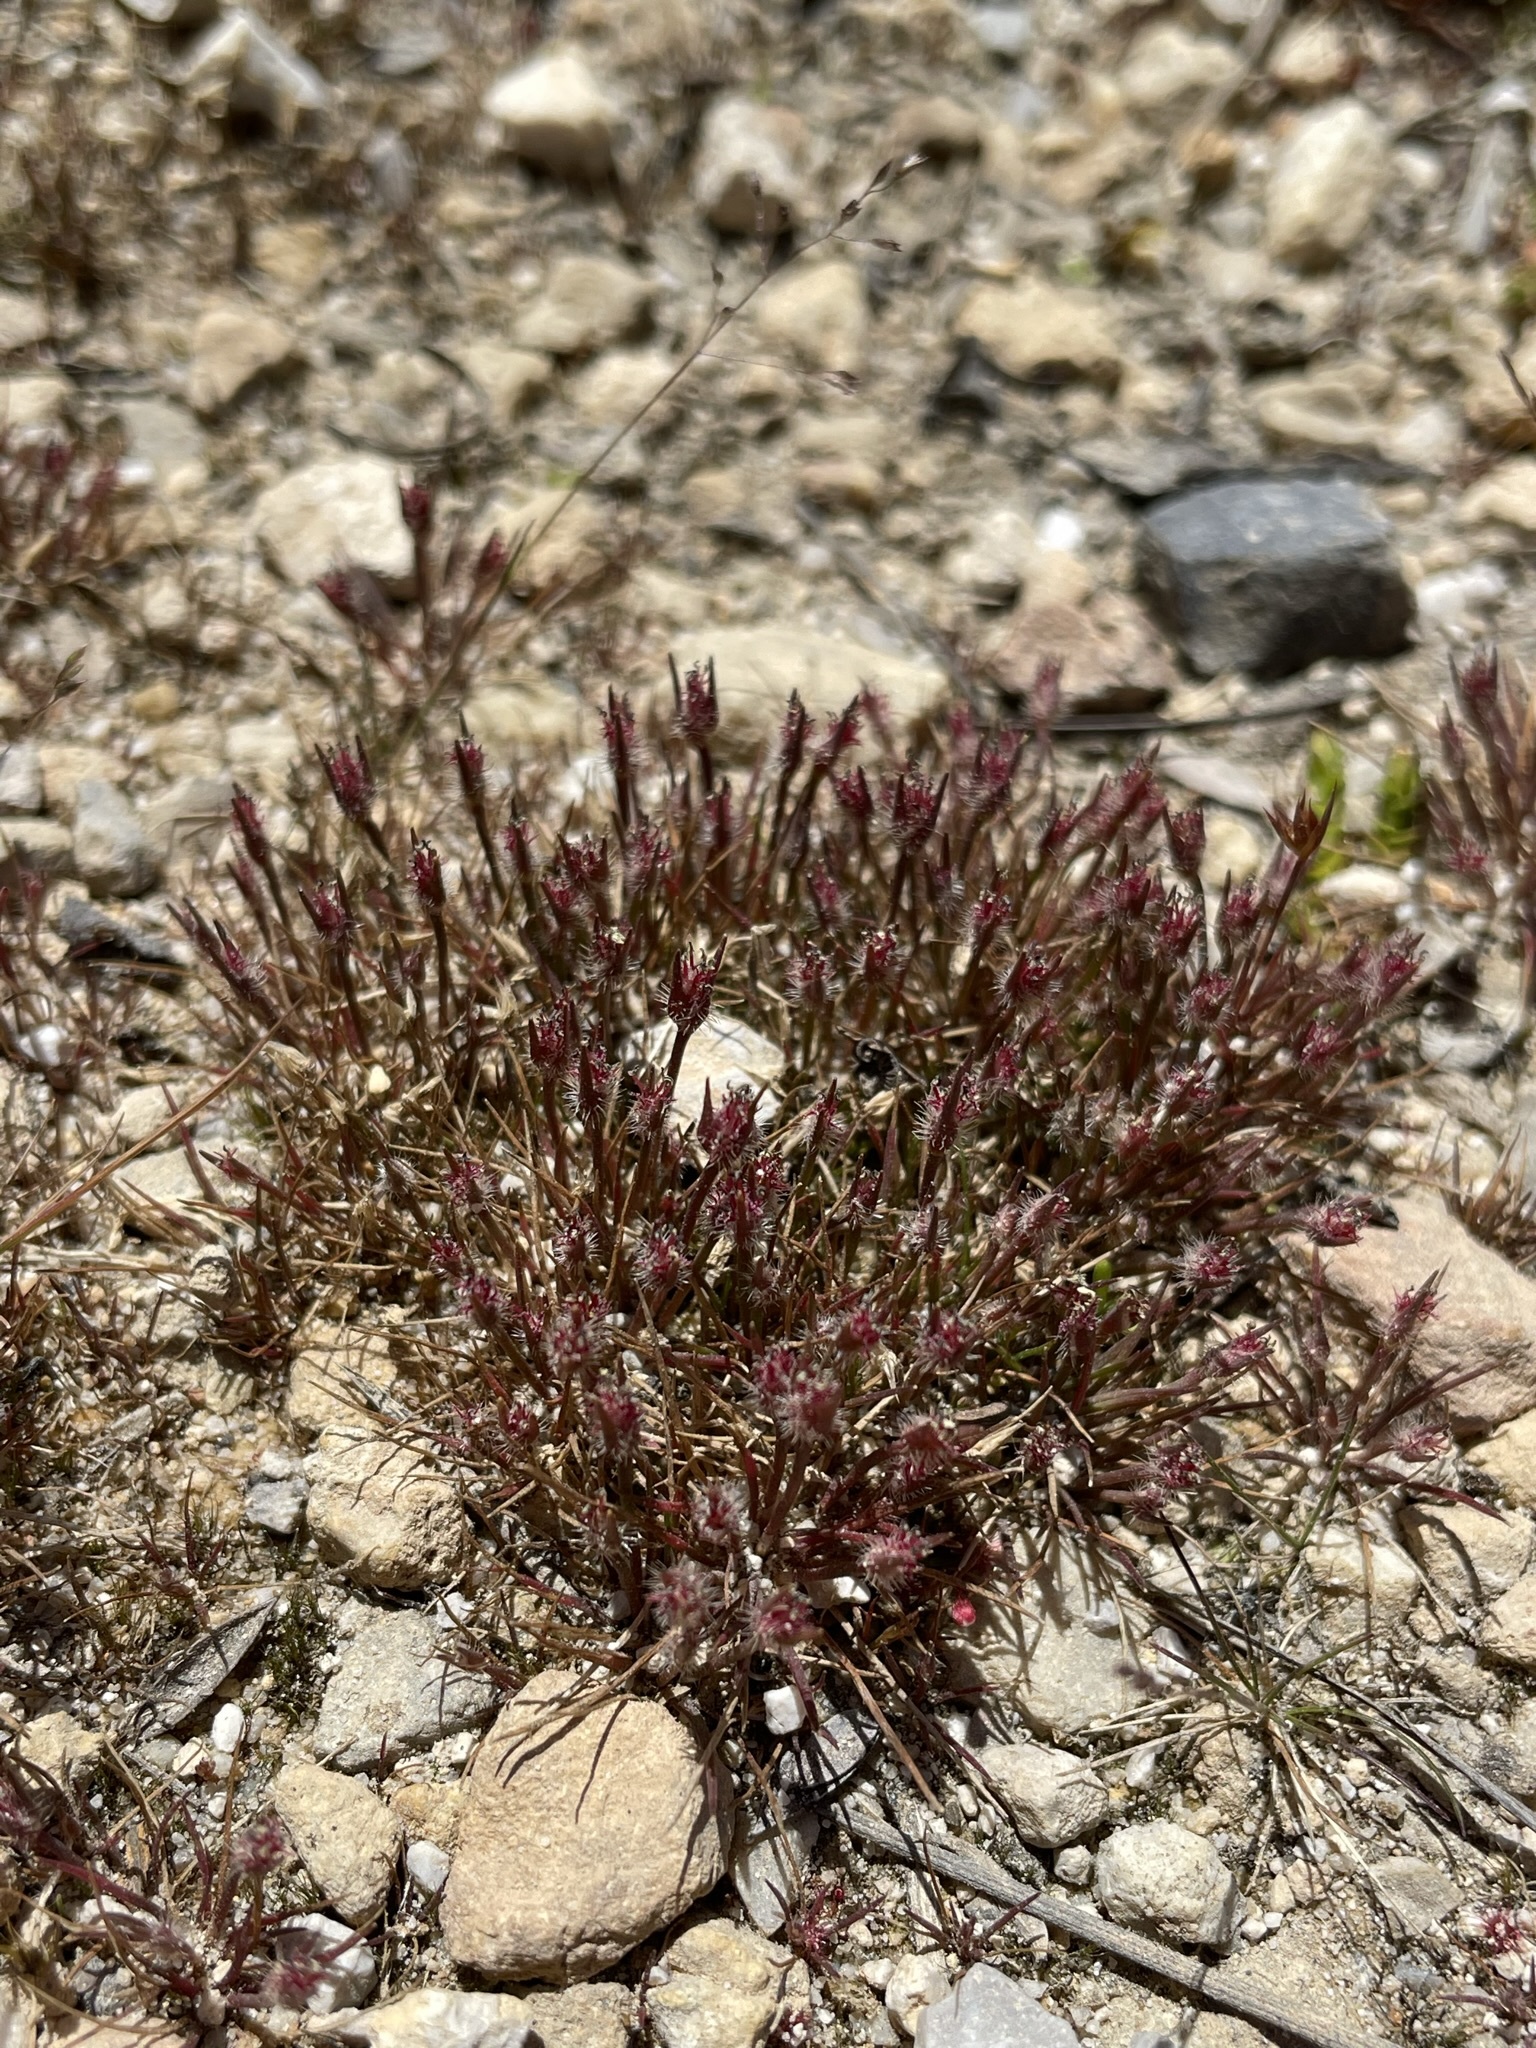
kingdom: Plantae
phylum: Tracheophyta
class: Liliopsida
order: Poales
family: Restionaceae
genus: Centrolepis
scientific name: Centrolepis fascicularis
